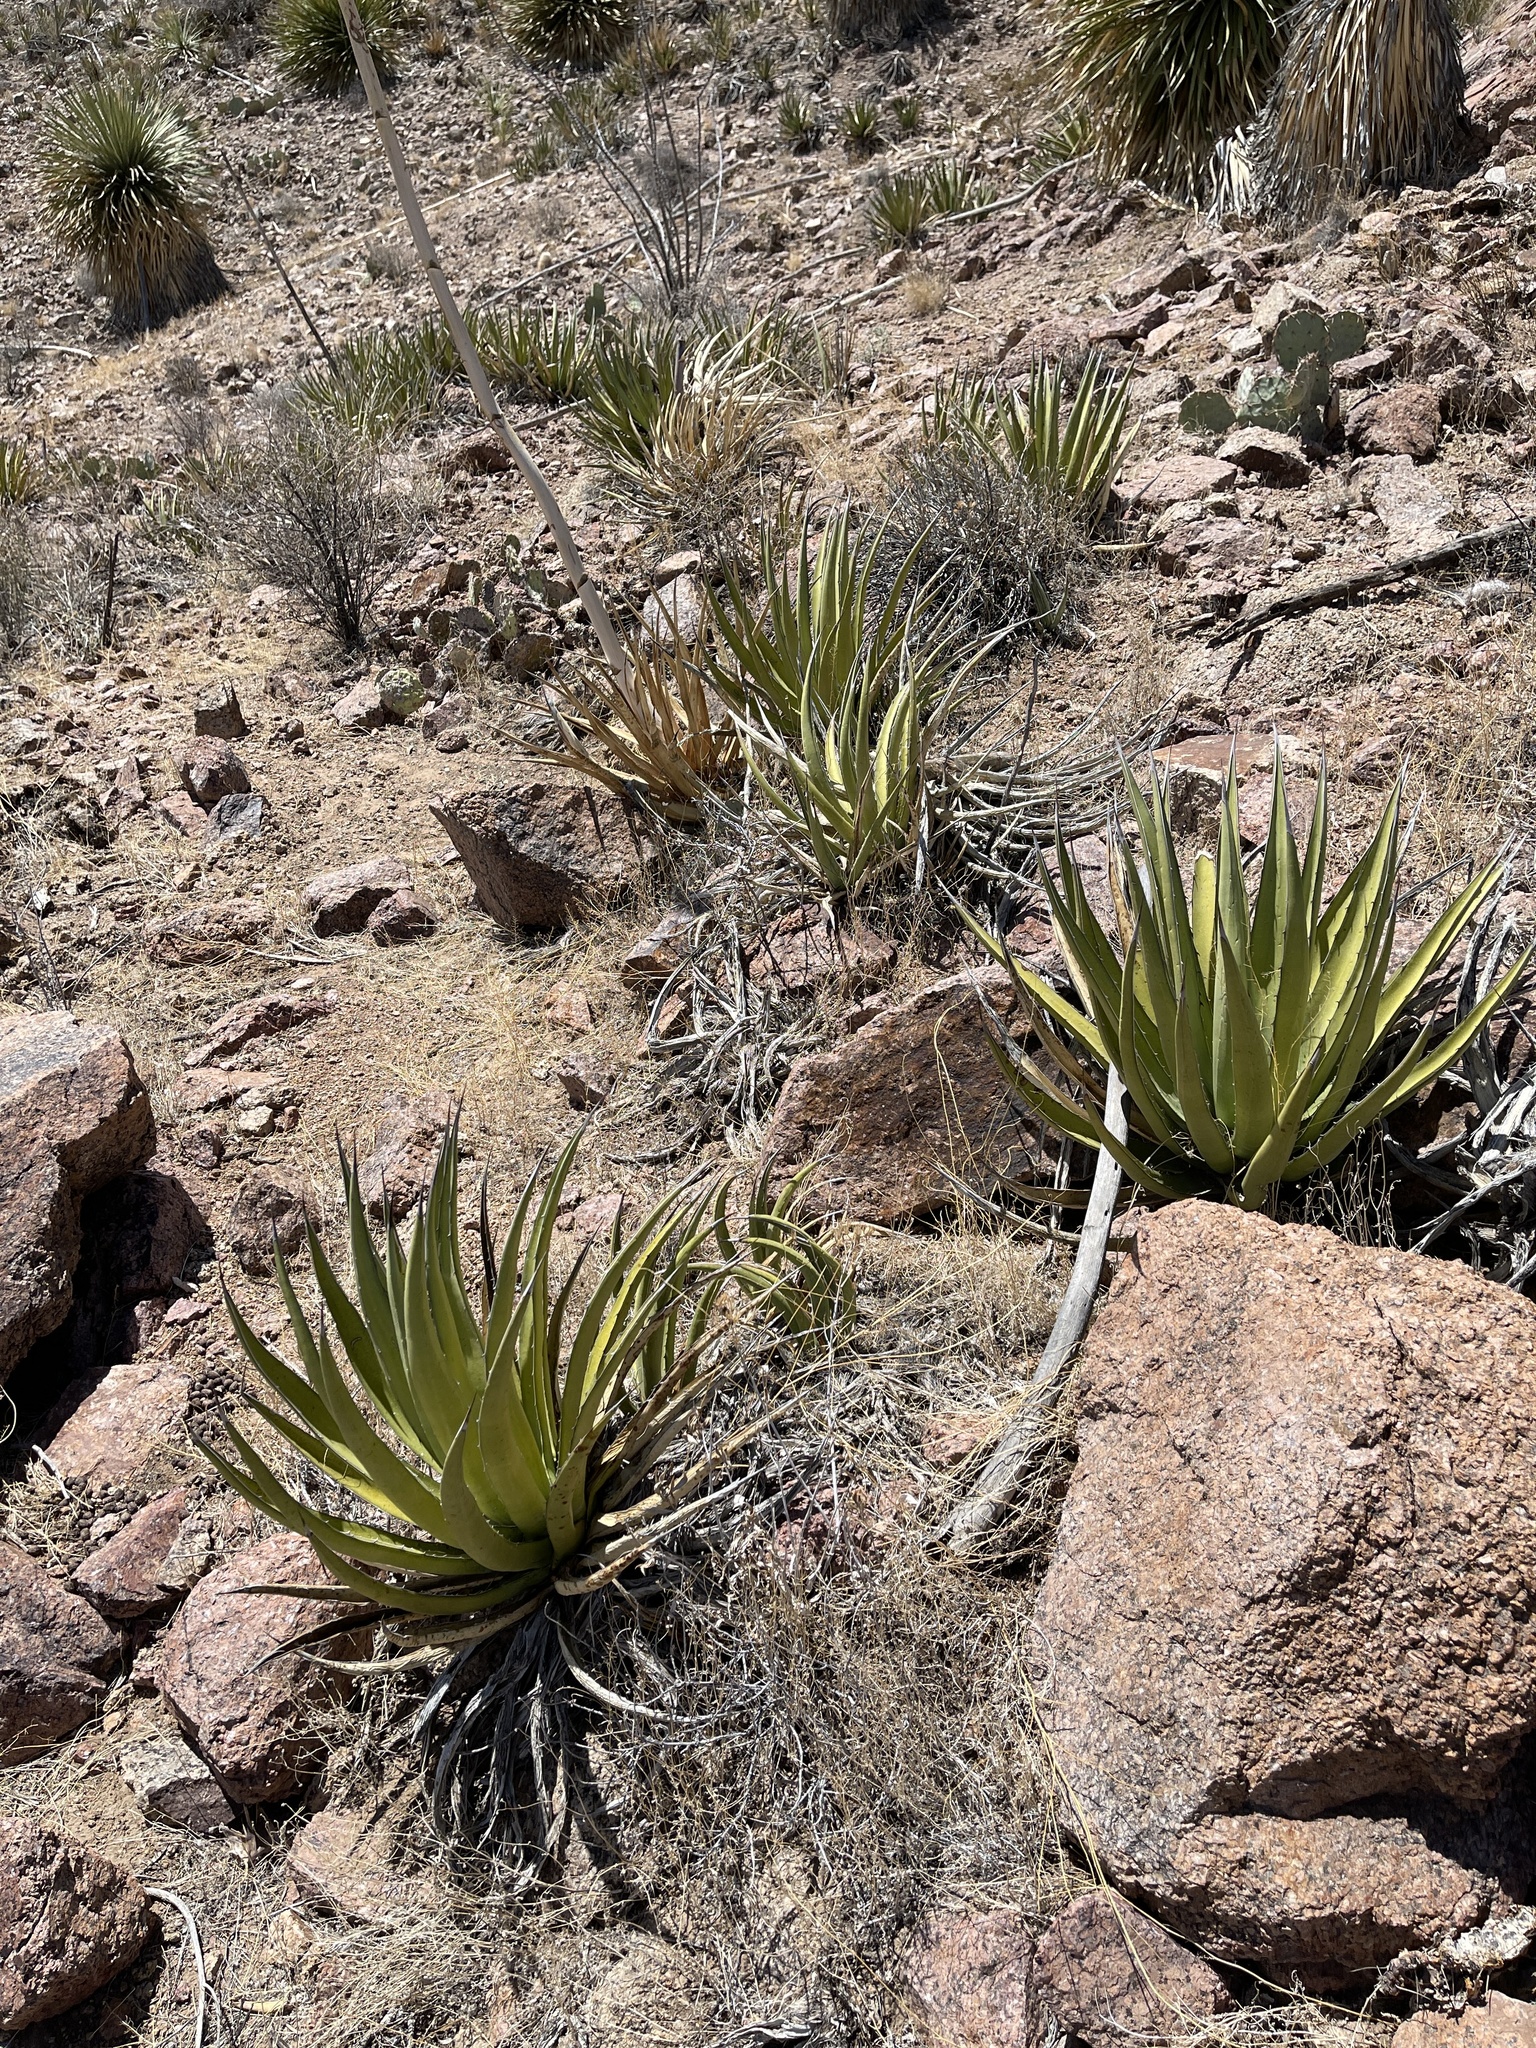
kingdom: Plantae
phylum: Tracheophyta
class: Liliopsida
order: Asparagales
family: Asparagaceae
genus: Agave
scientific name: Agave lechuguilla
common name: Lecheguilla agave
